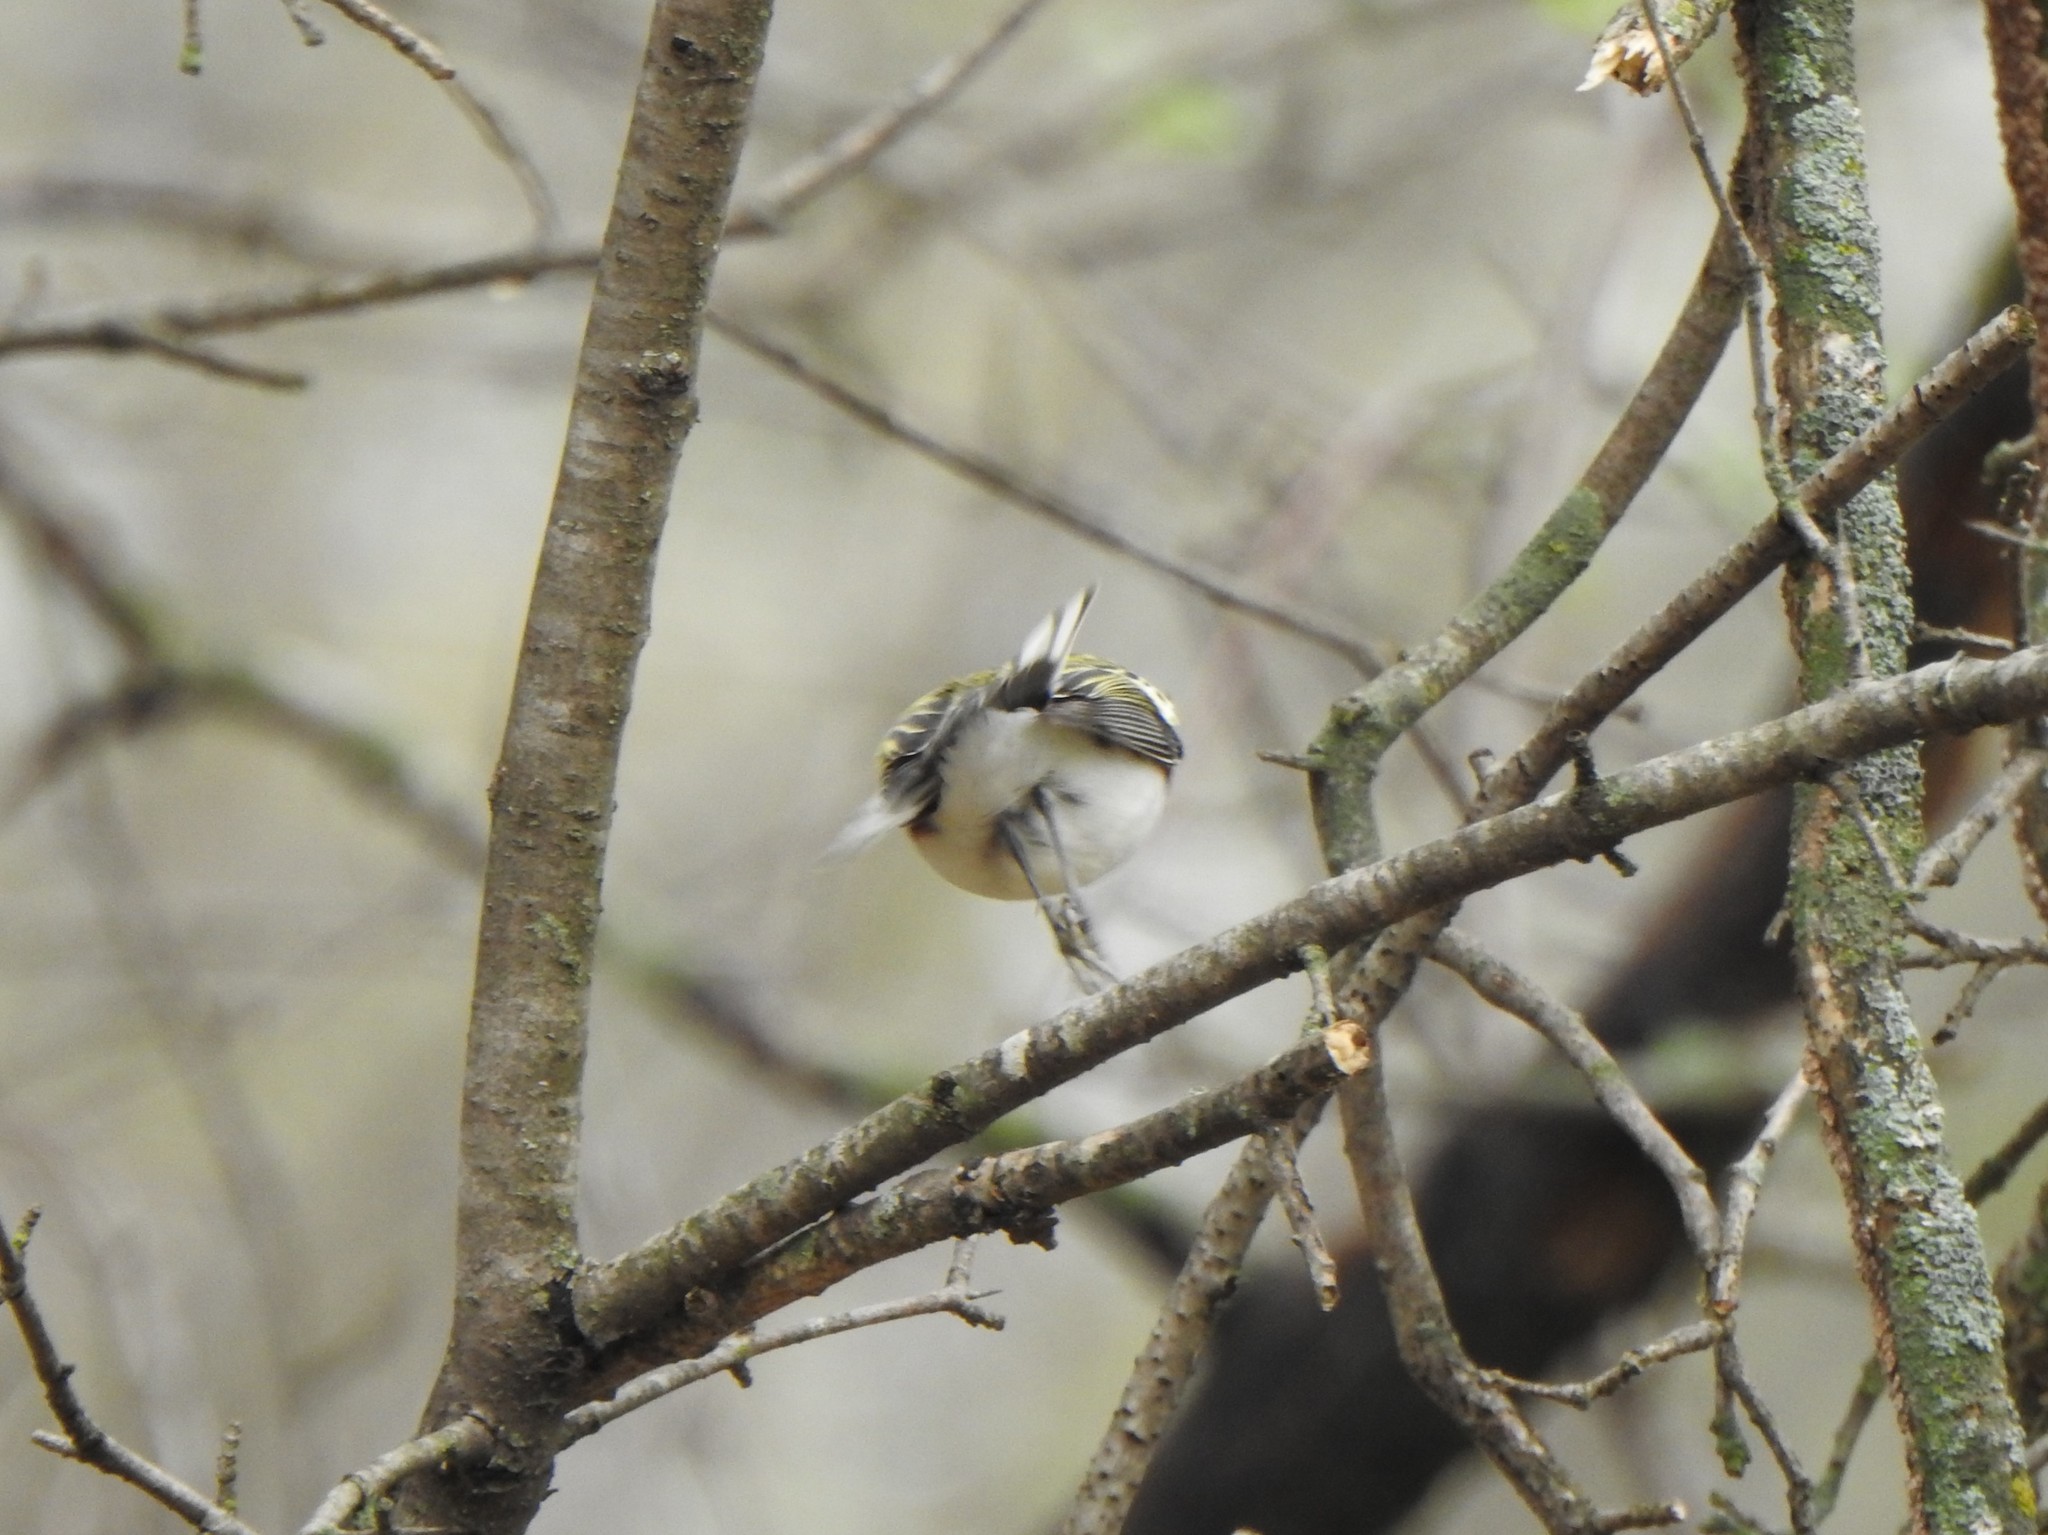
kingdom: Animalia
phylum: Chordata
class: Aves
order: Passeriformes
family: Parulidae
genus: Setophaga
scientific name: Setophaga pensylvanica
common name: Chestnut-sided warbler
